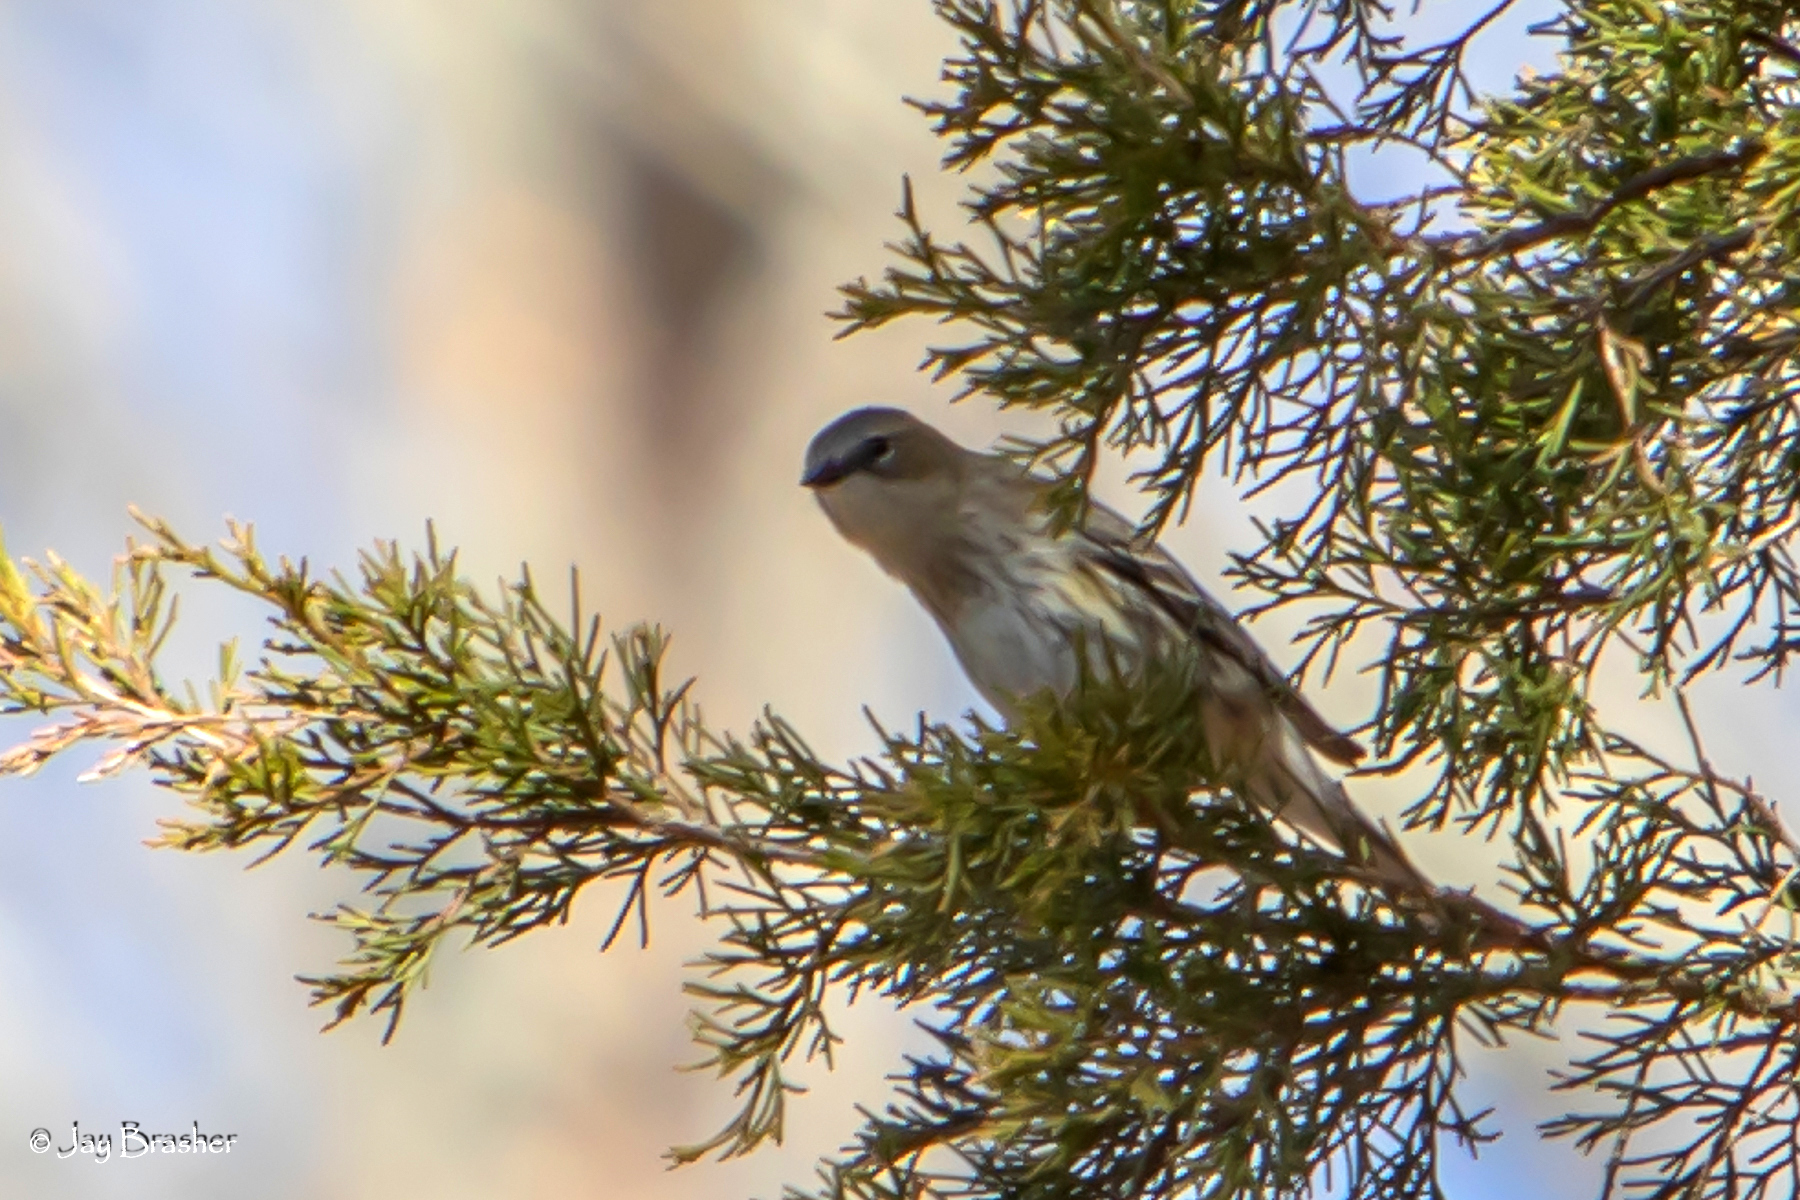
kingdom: Animalia
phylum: Chordata
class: Aves
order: Passeriformes
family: Parulidae
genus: Setophaga
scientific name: Setophaga coronata
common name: Myrtle warbler
